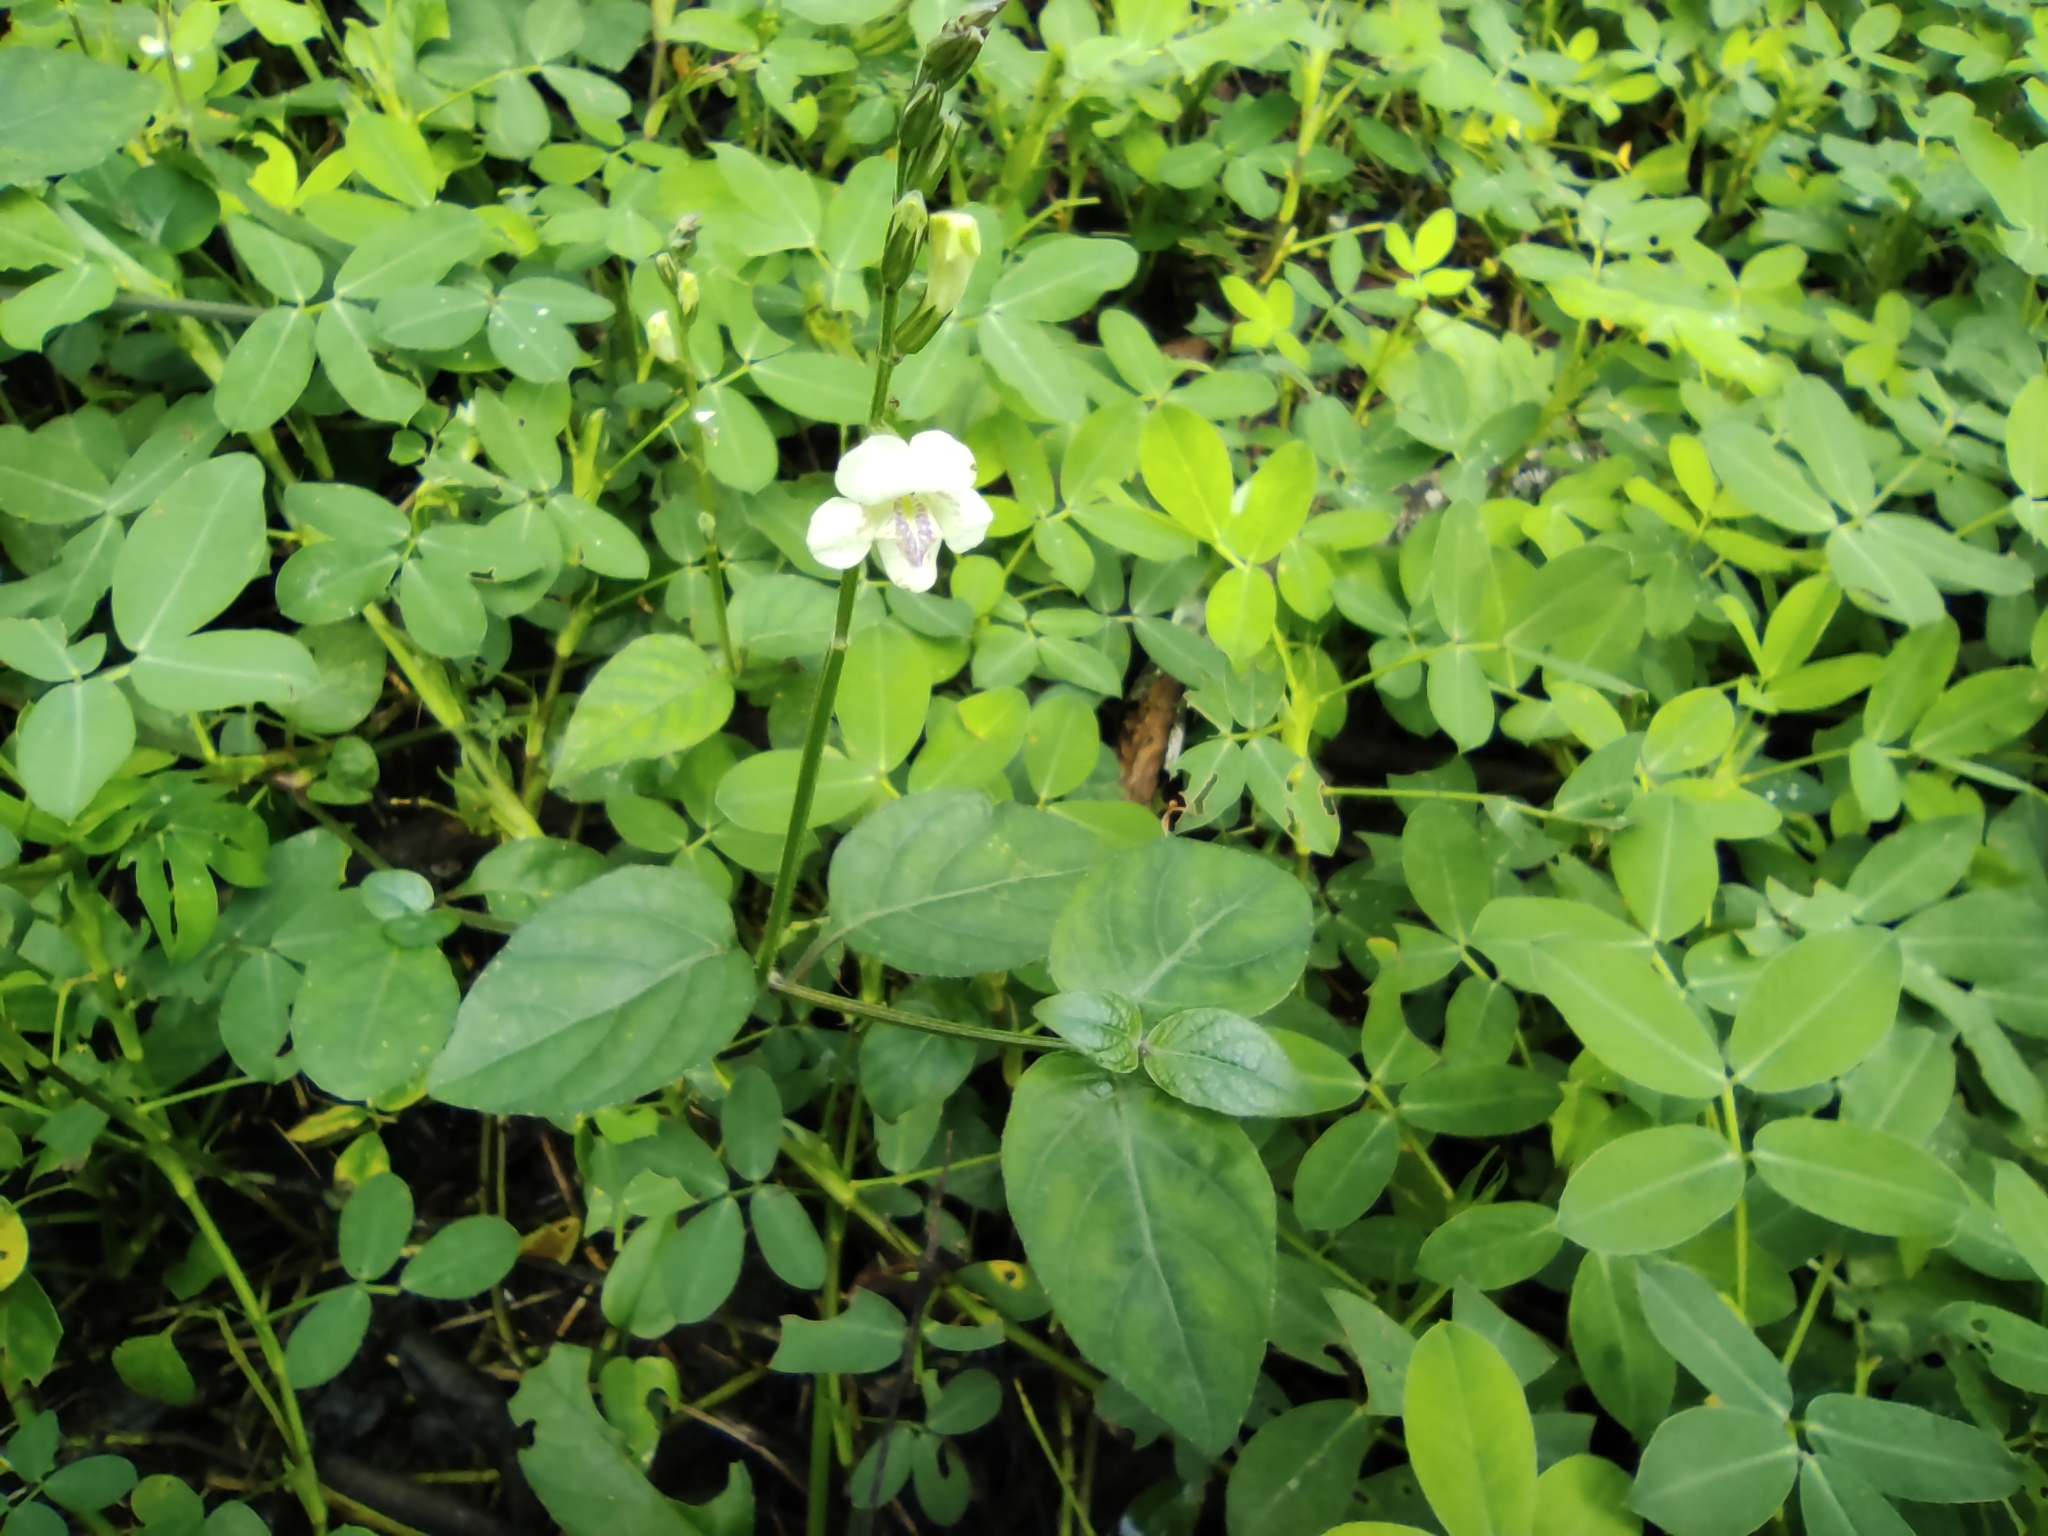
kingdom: Plantae
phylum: Tracheophyta
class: Magnoliopsida
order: Lamiales
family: Acanthaceae
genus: Asystasia
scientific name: Asystasia intrusa
